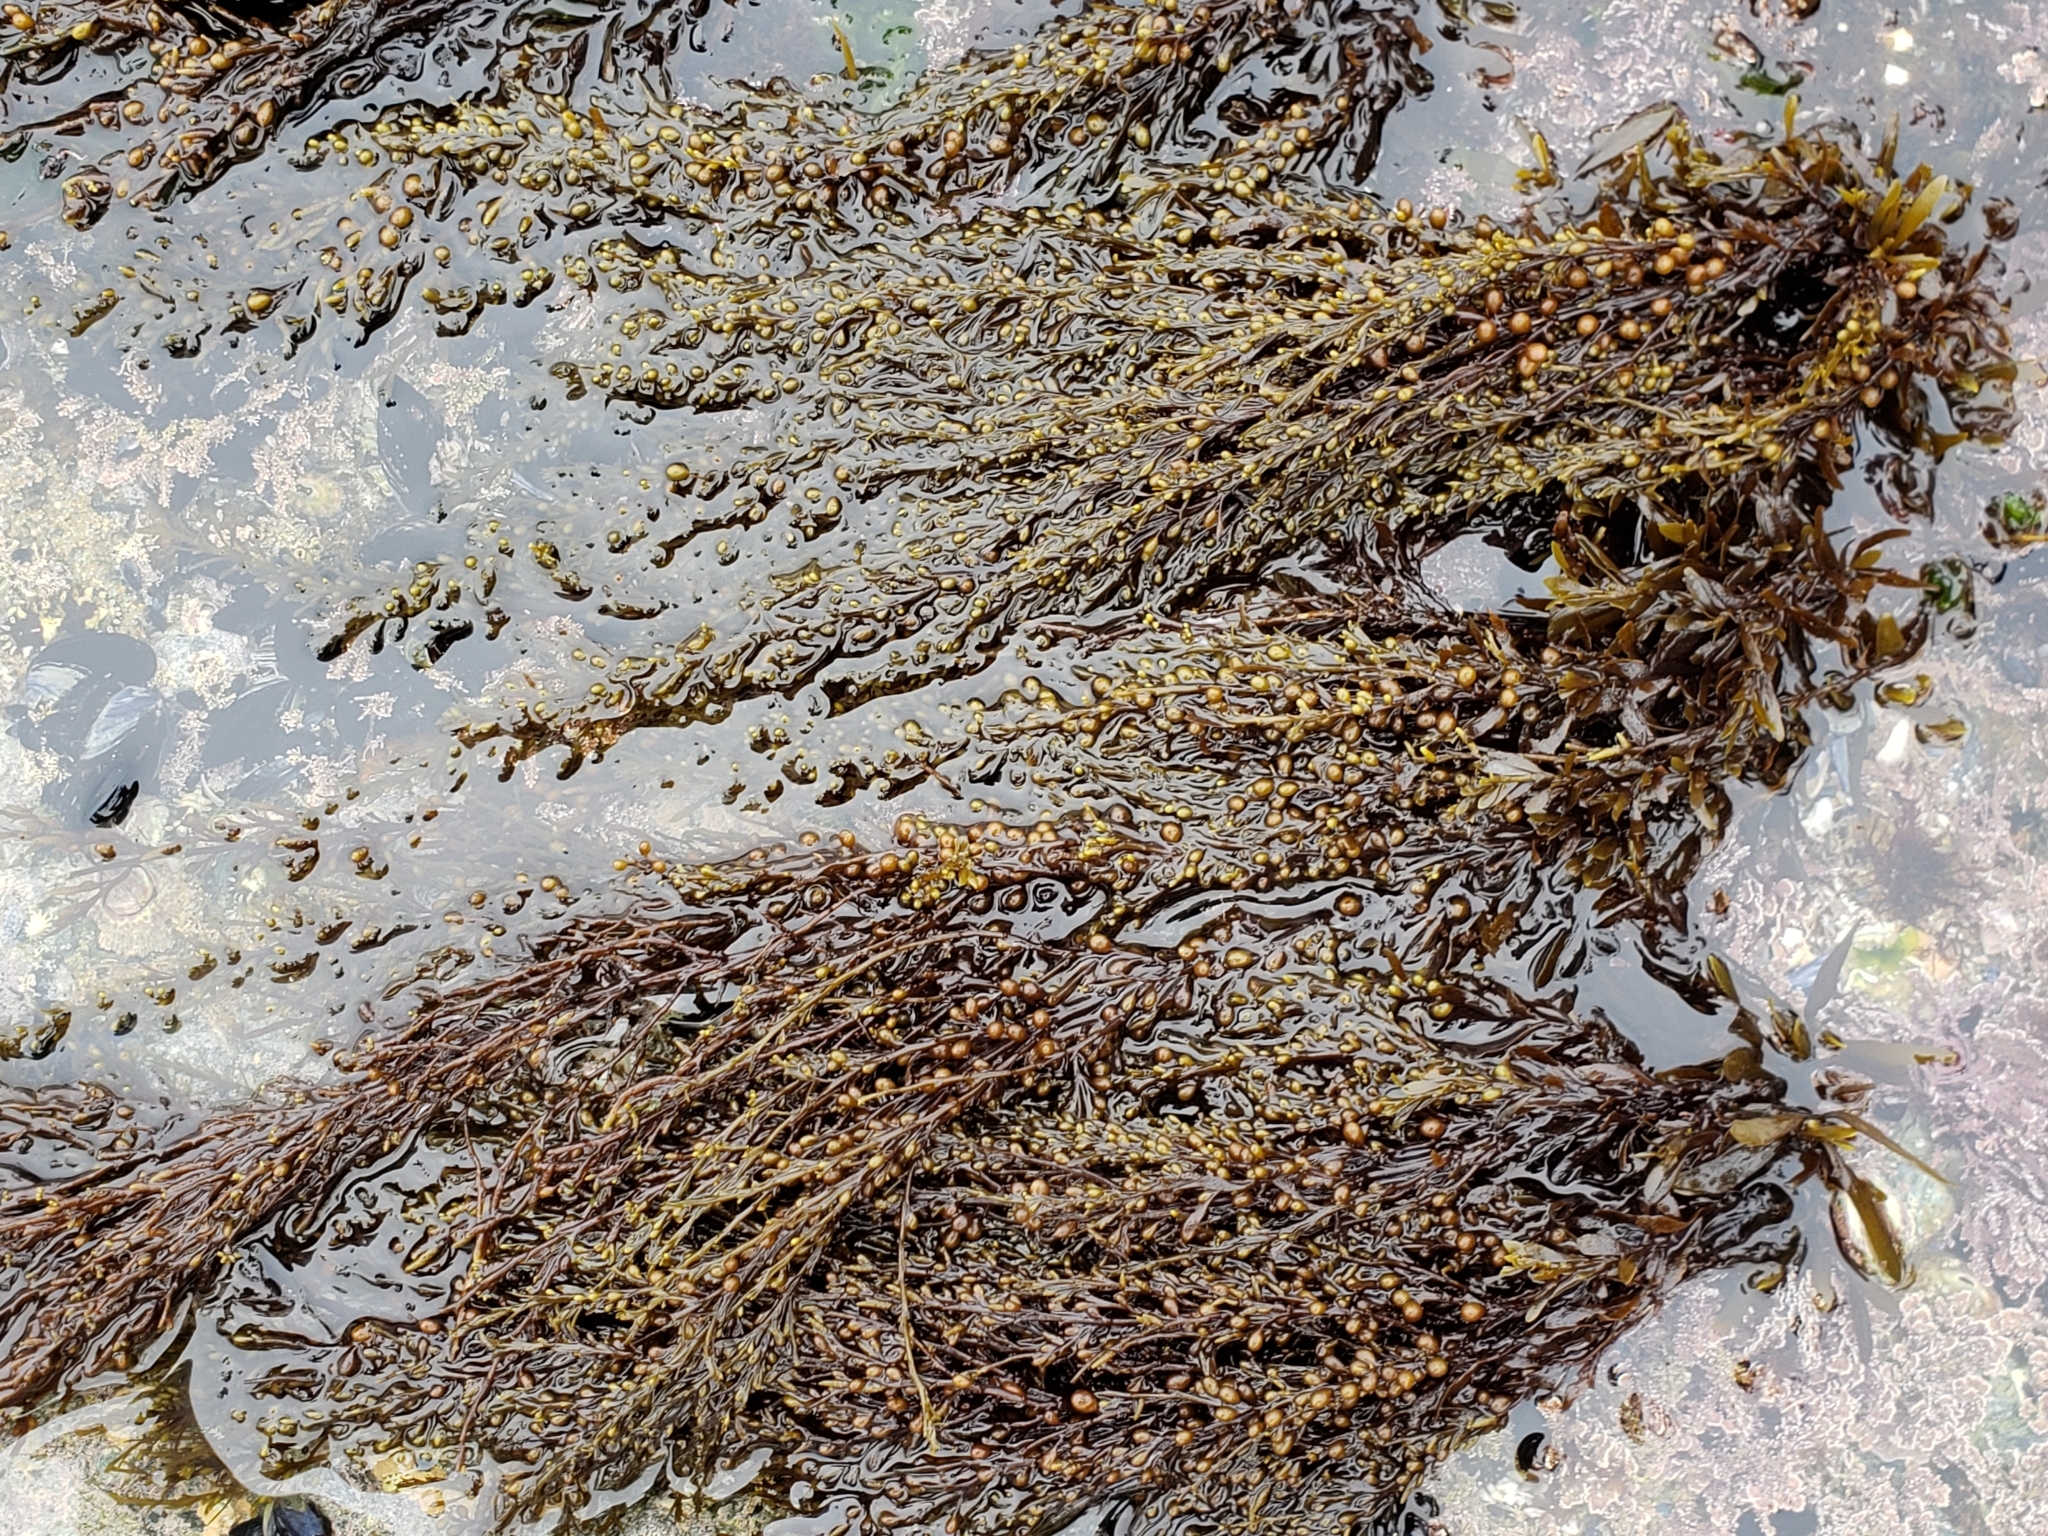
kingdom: Chromista
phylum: Ochrophyta
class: Phaeophyceae
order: Fucales
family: Sargassaceae
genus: Sargassum
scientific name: Sargassum muticum
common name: Japweed
